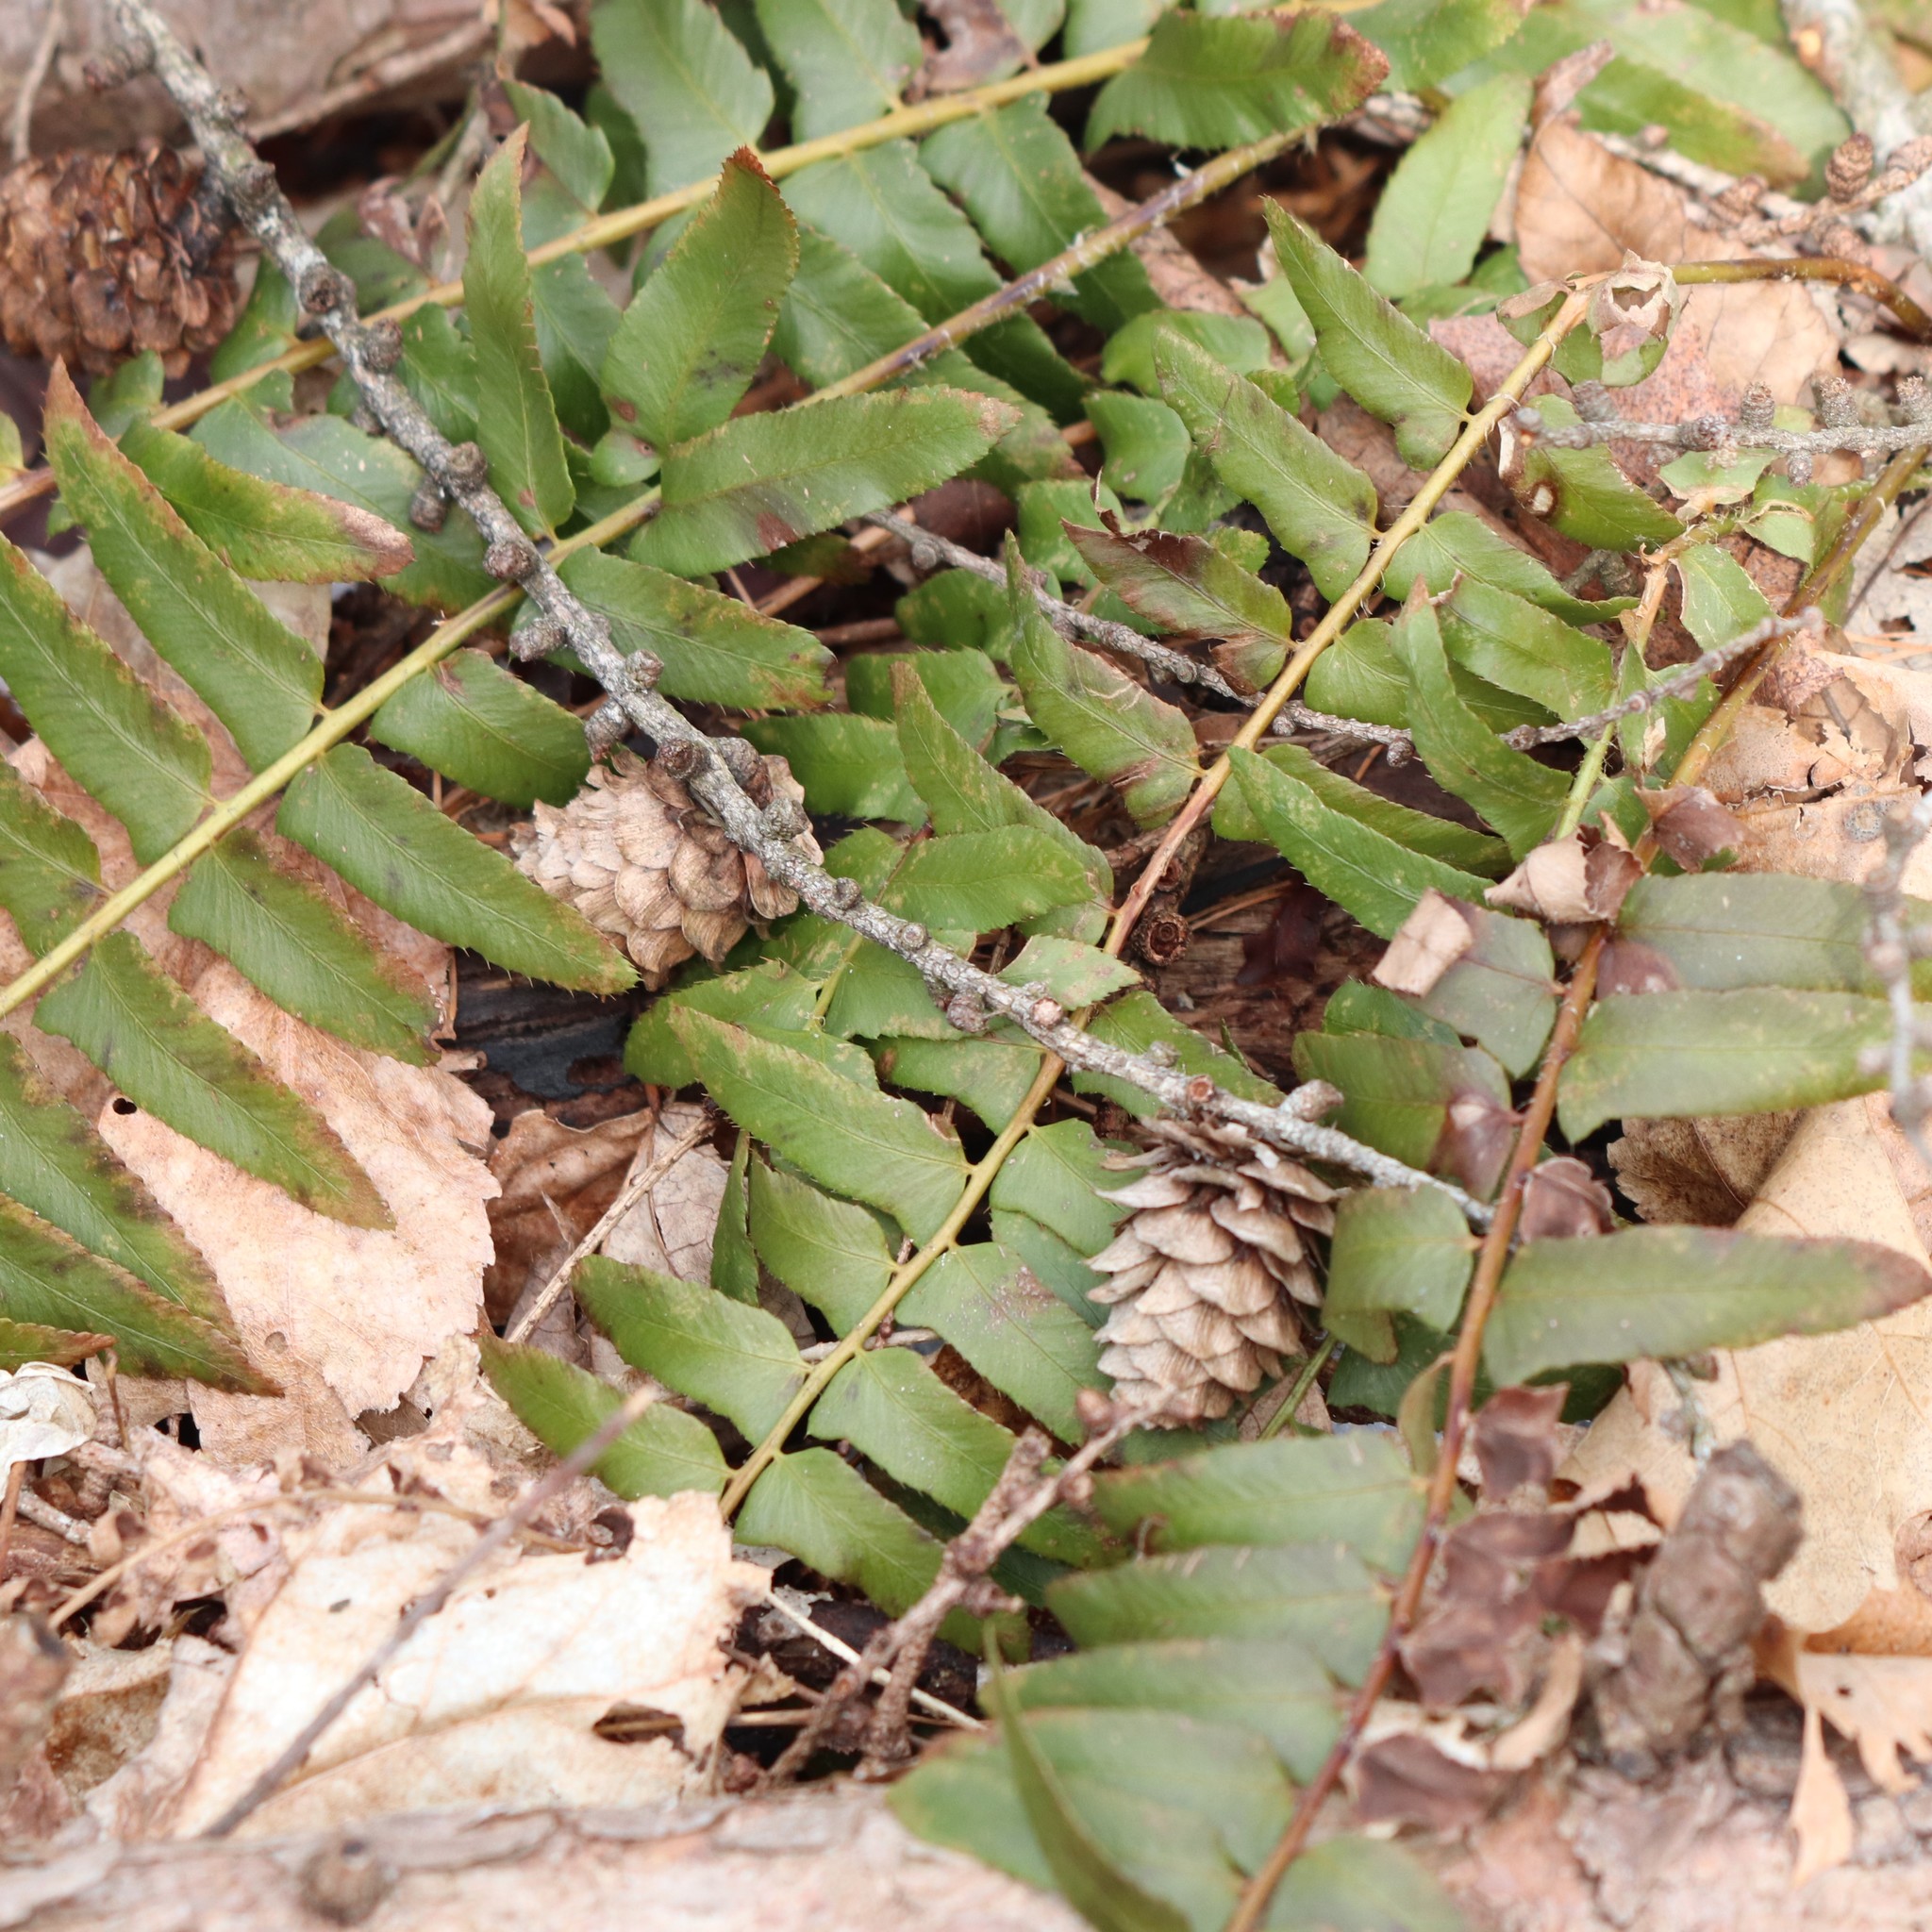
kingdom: Plantae
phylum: Tracheophyta
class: Polypodiopsida
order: Polypodiales
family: Dryopteridaceae
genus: Polystichum
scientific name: Polystichum acrostichoides
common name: Christmas fern
